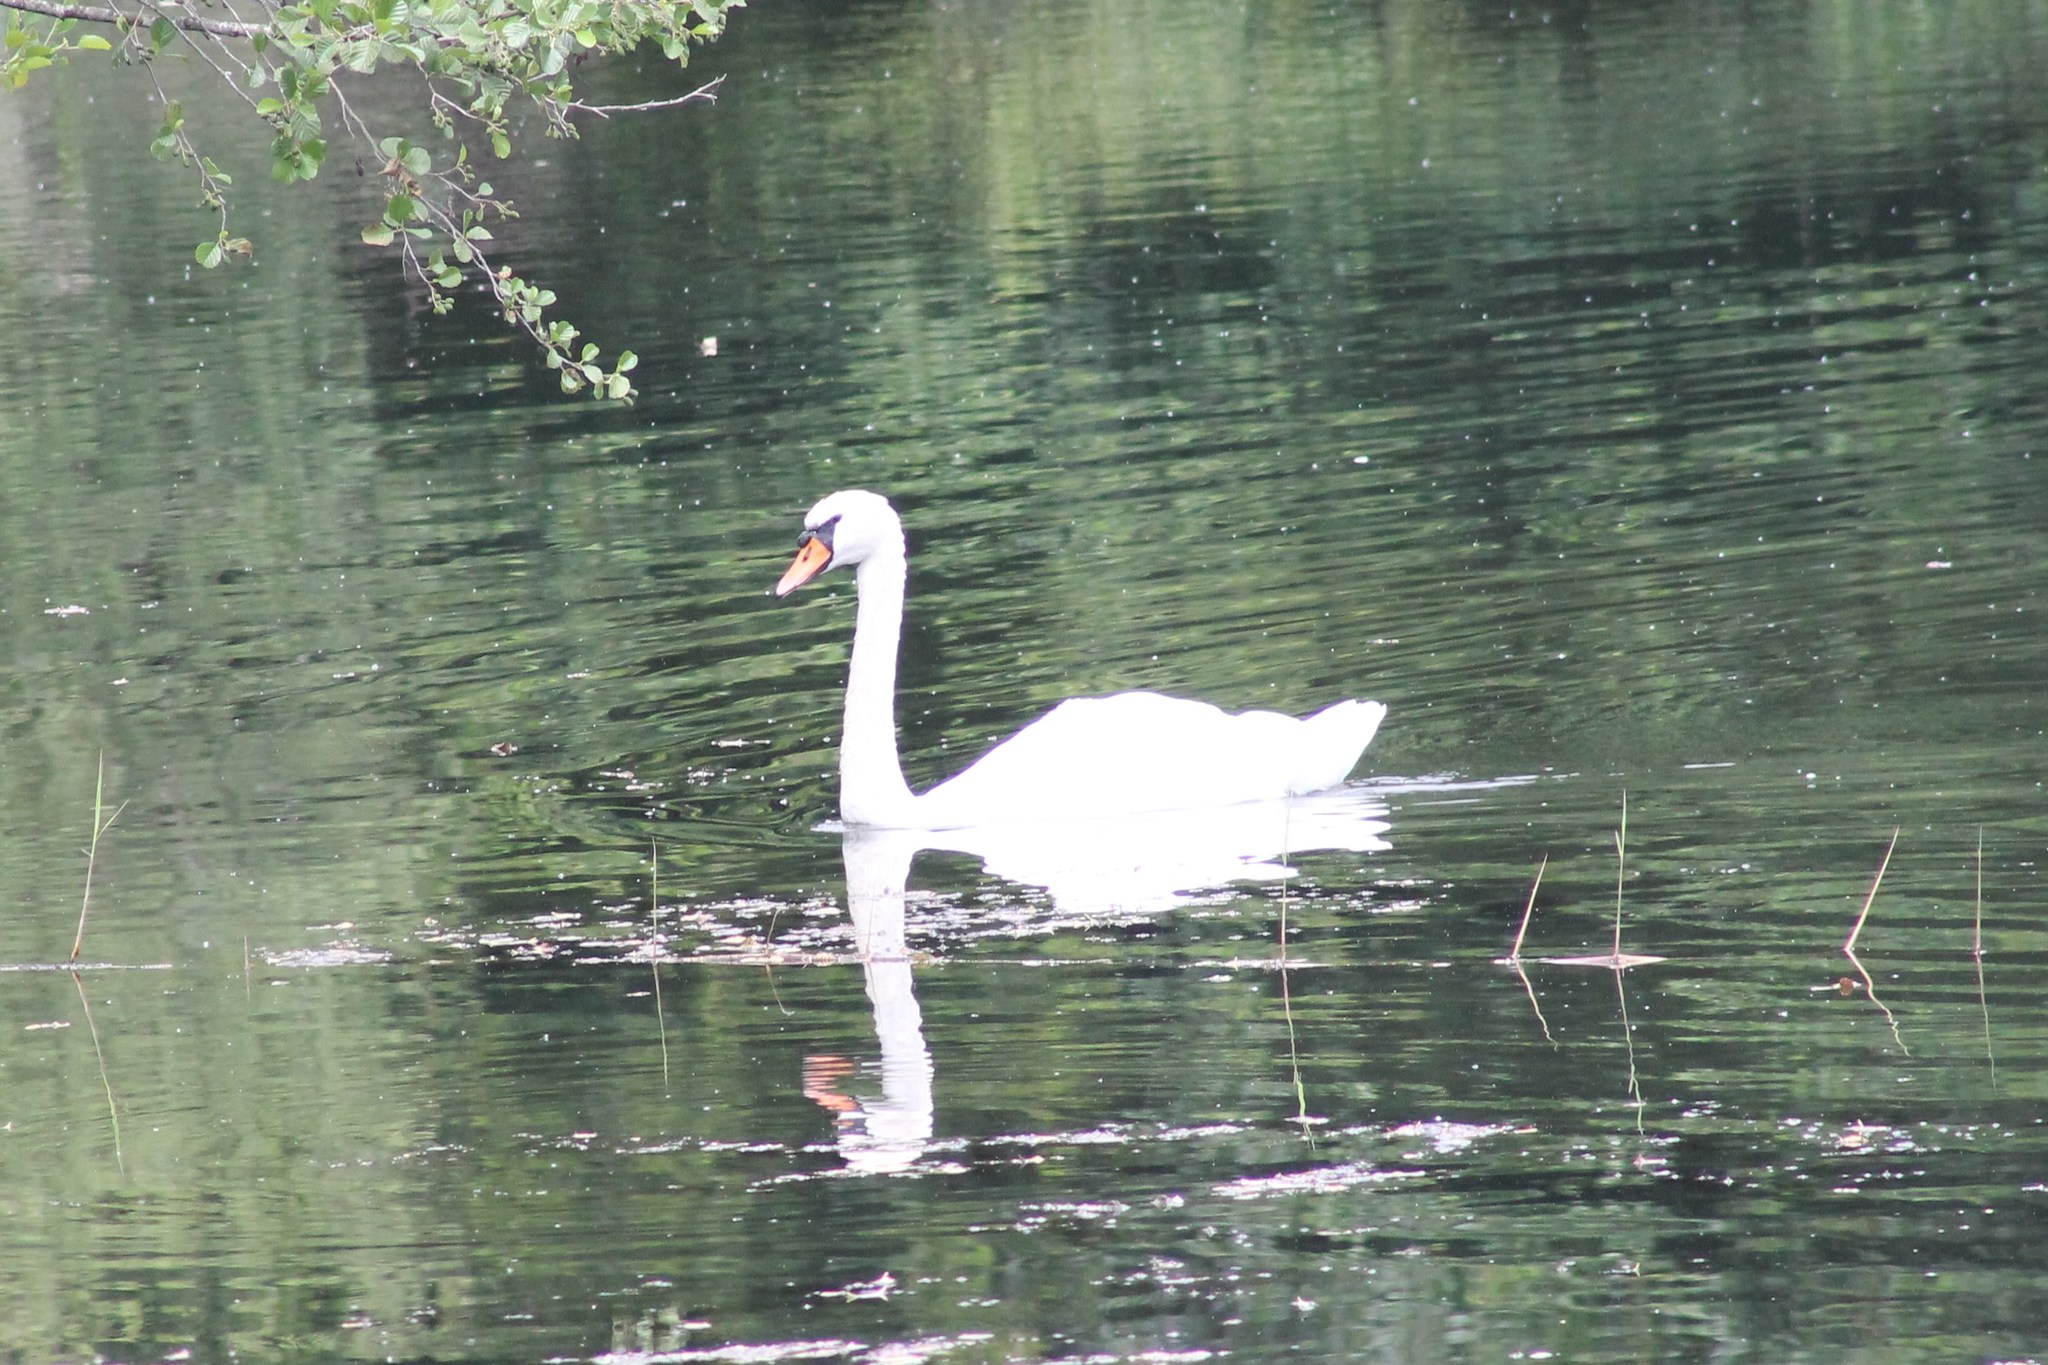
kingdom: Animalia
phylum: Chordata
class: Aves
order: Anseriformes
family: Anatidae
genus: Cygnus
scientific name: Cygnus olor
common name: Mute swan
